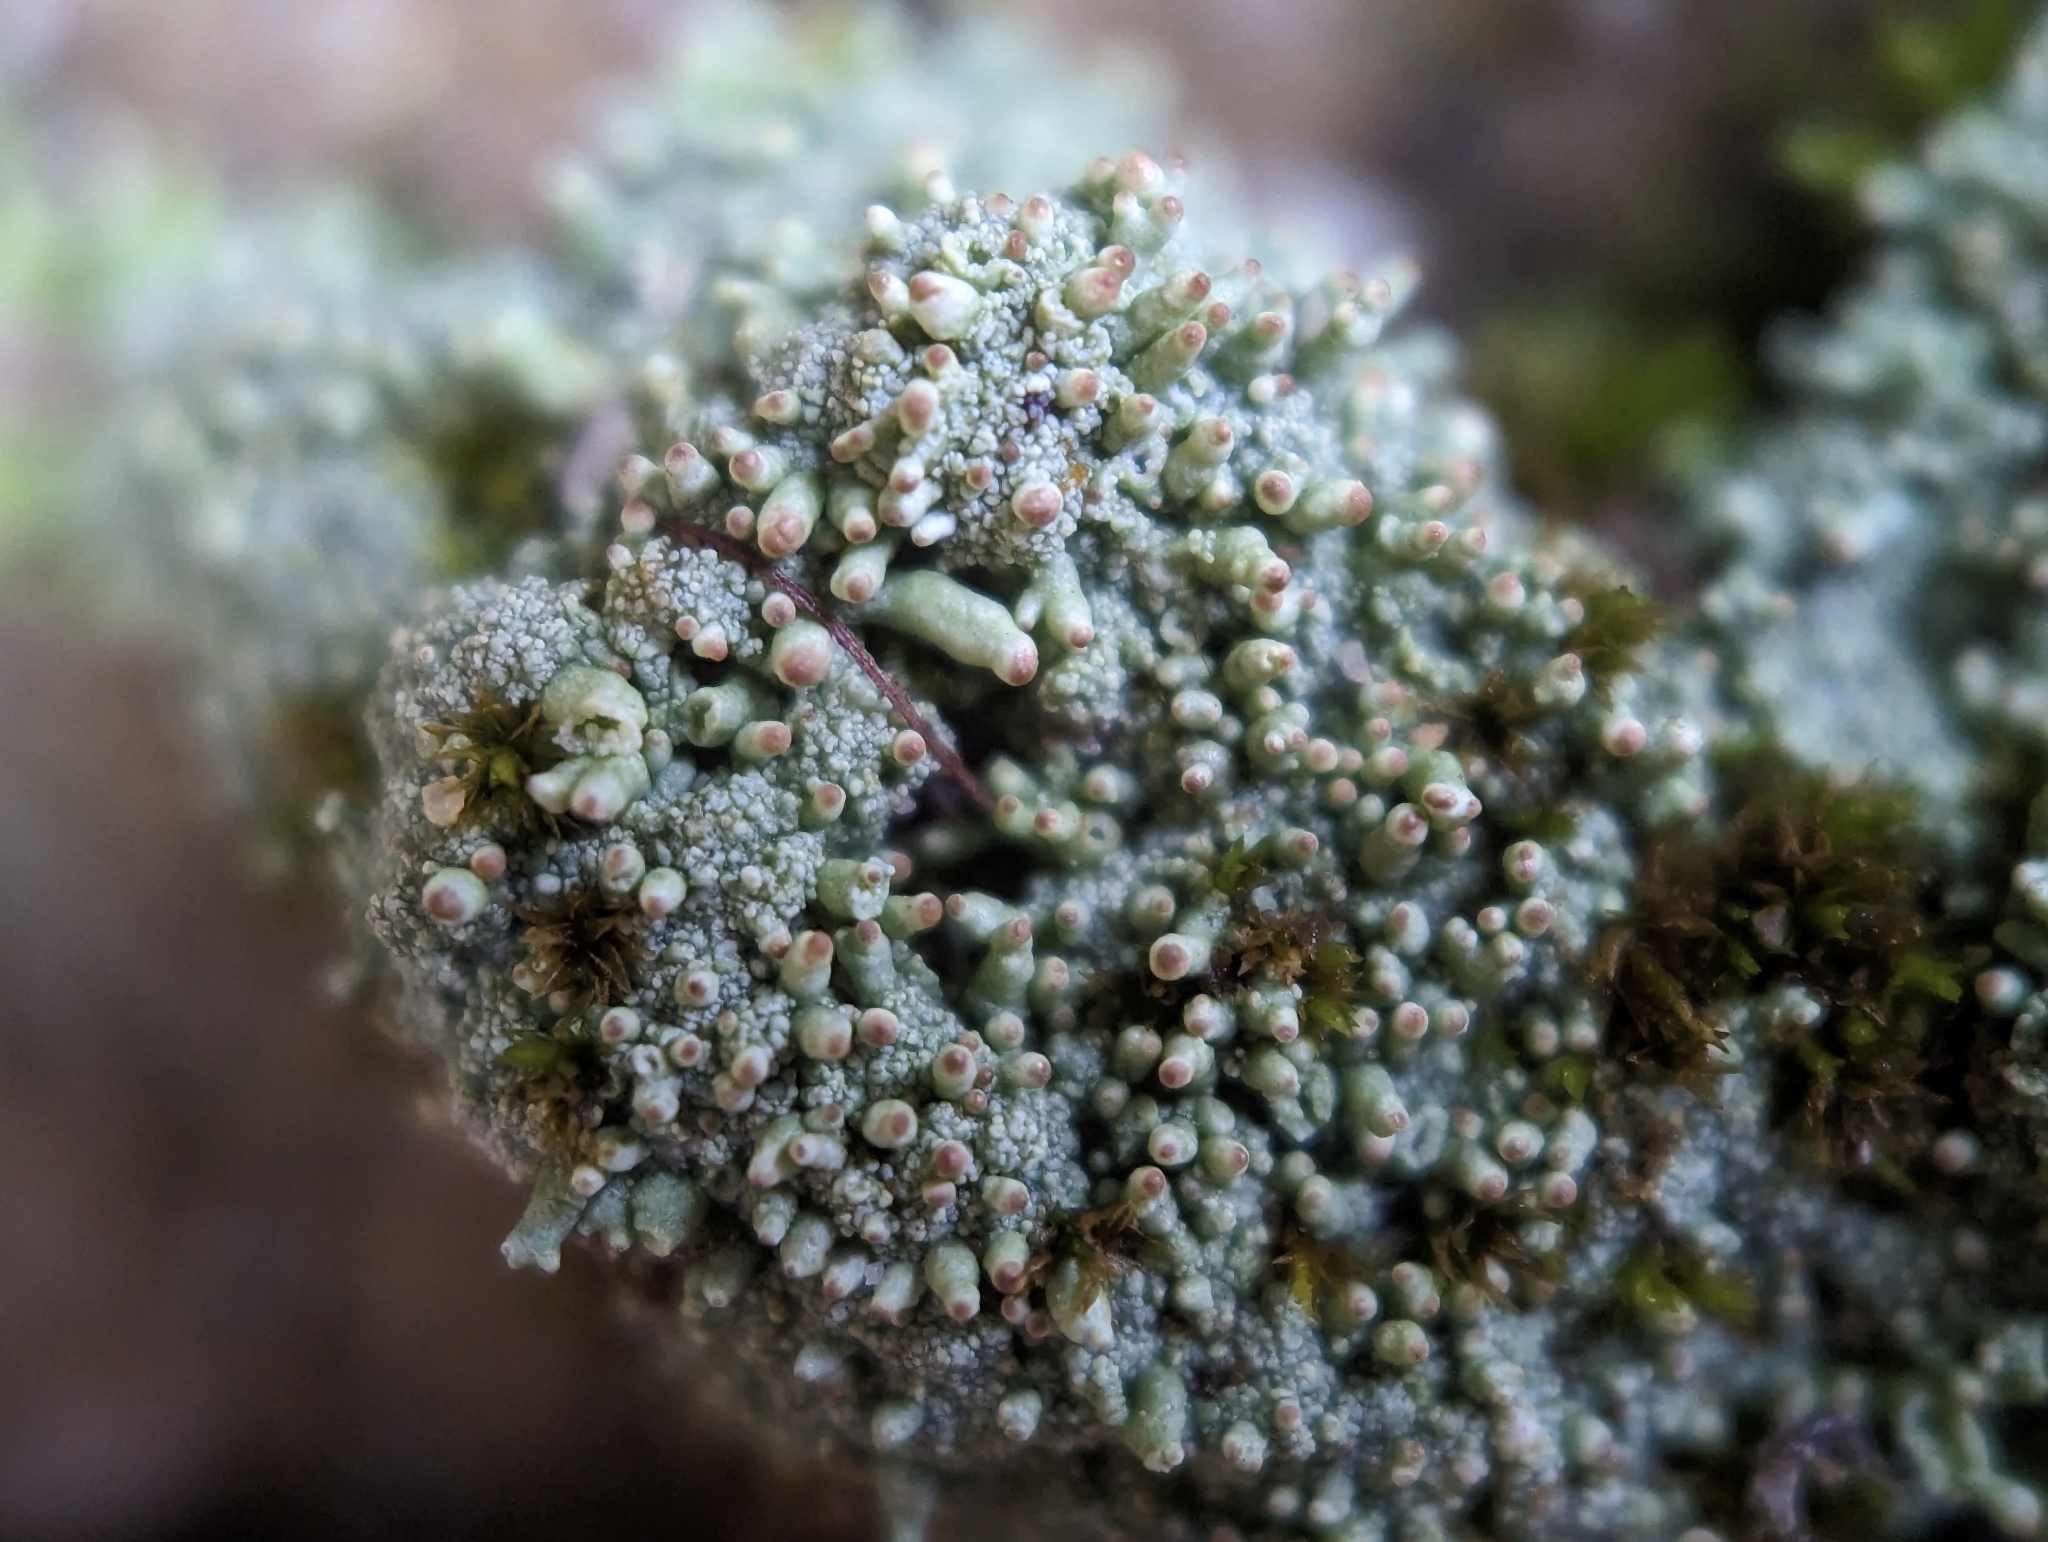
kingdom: Fungi
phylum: Ascomycota
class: Lecanoromycetes
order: Lecanorales
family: Cladoniaceae
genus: Pycnothelia
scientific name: Pycnothelia papillaria
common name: Nipple lichen
